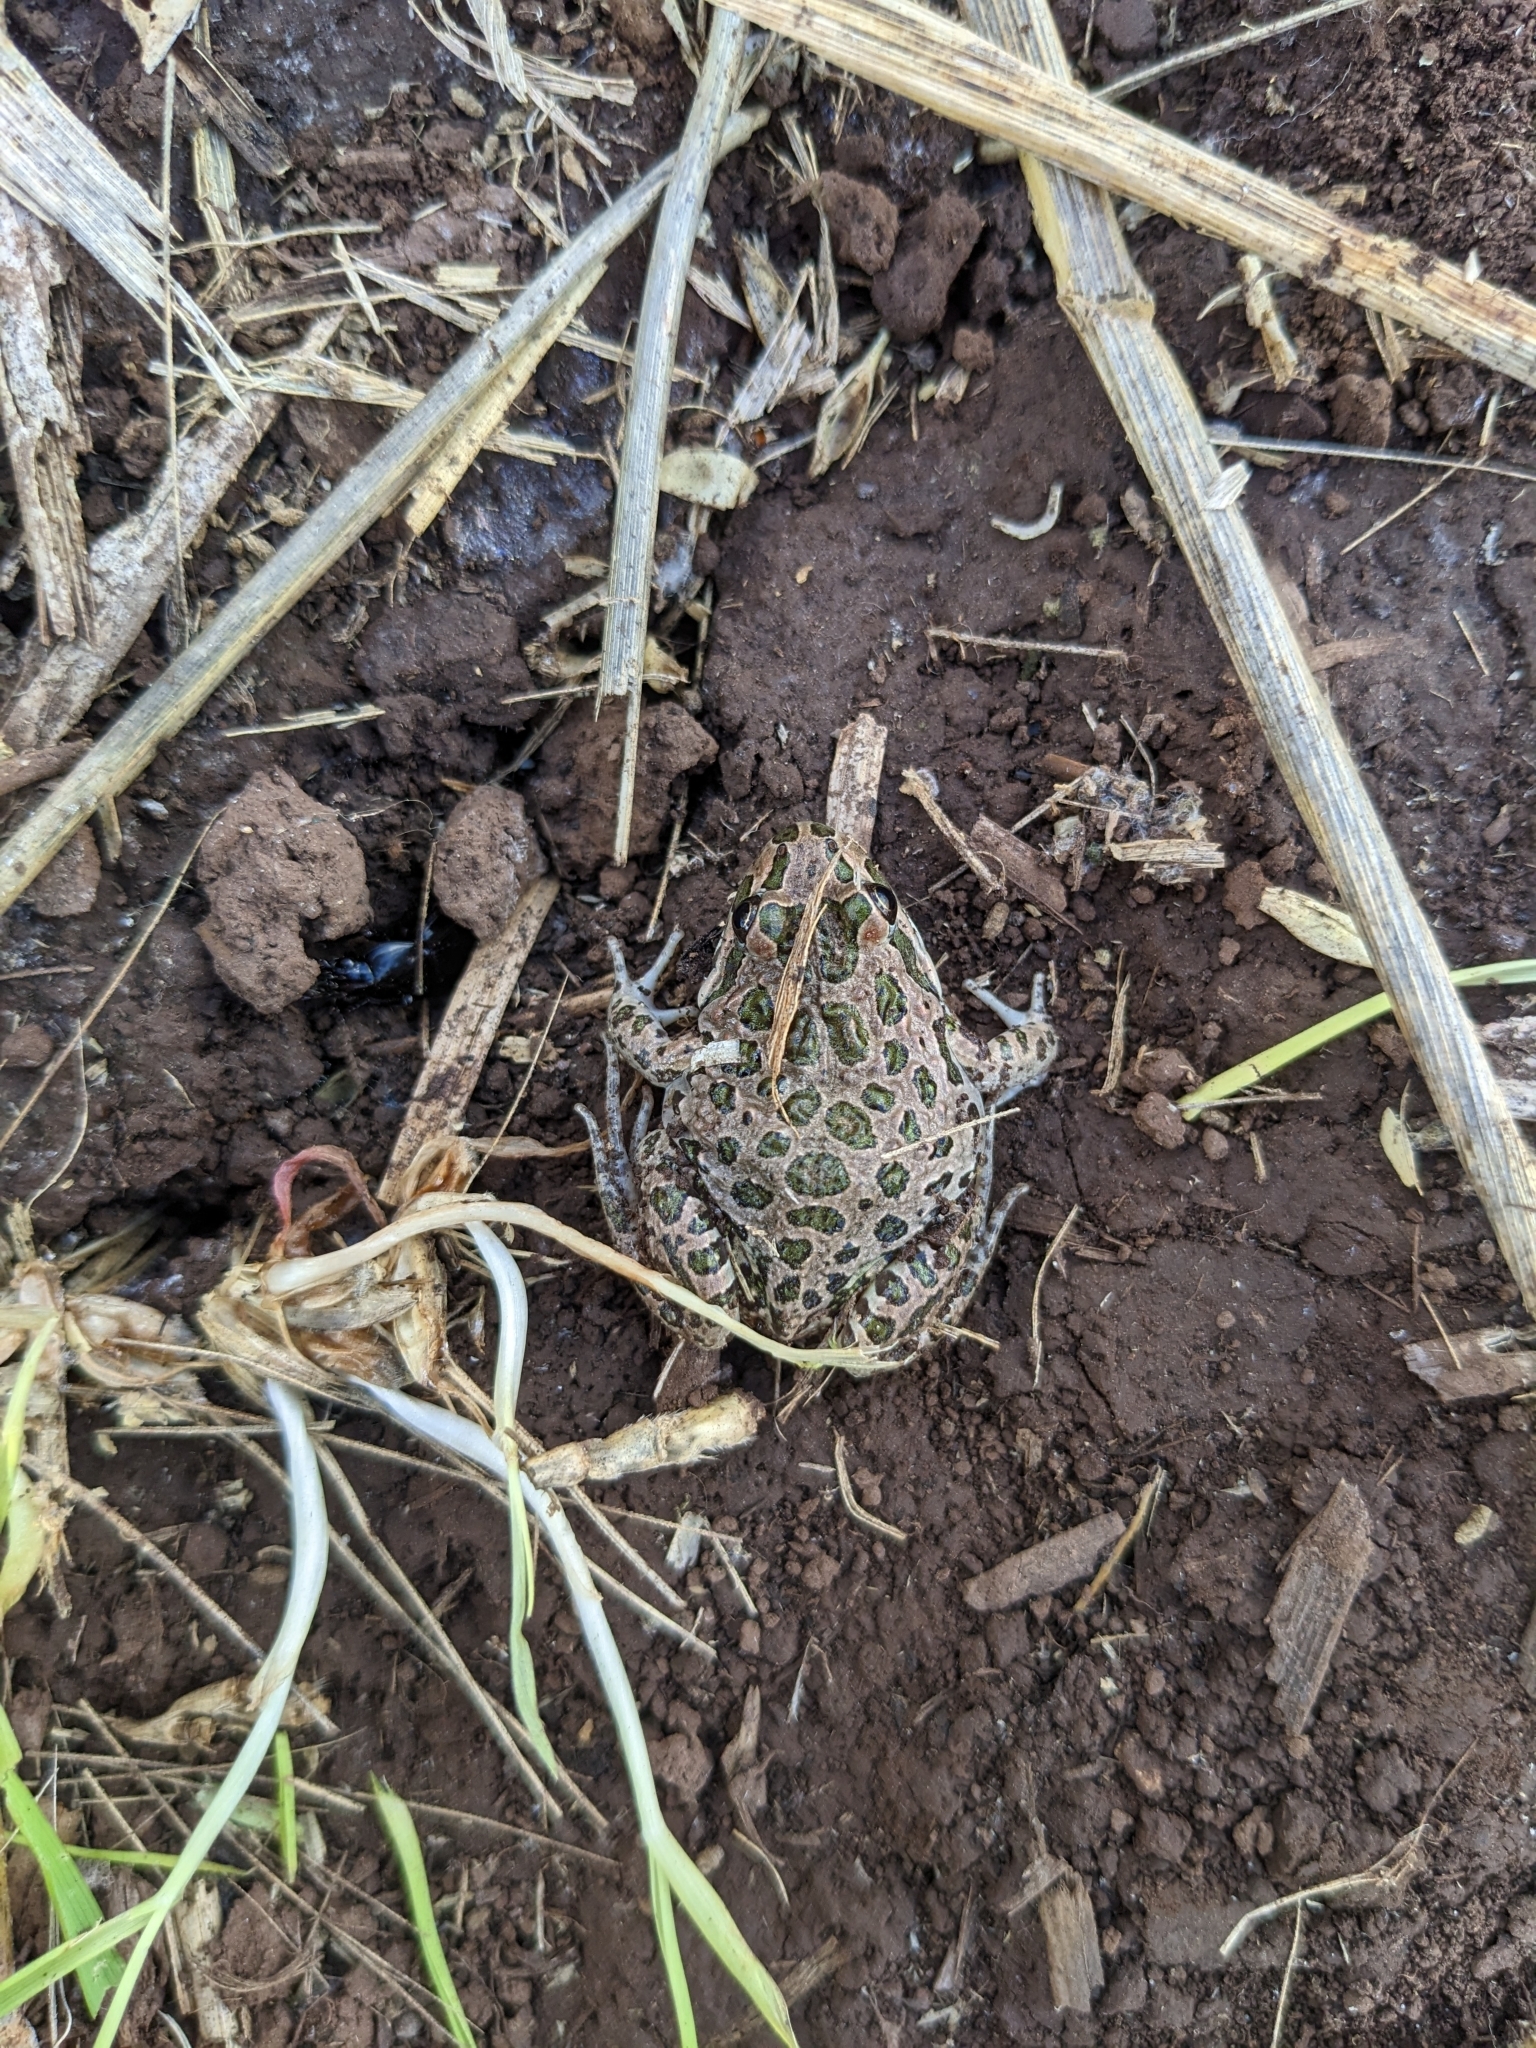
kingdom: Animalia
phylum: Chordata
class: Amphibia
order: Anura
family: Limnodynastidae
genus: Limnodynastes
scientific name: Limnodynastes tasmaniensis
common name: Spotted marsh frog
